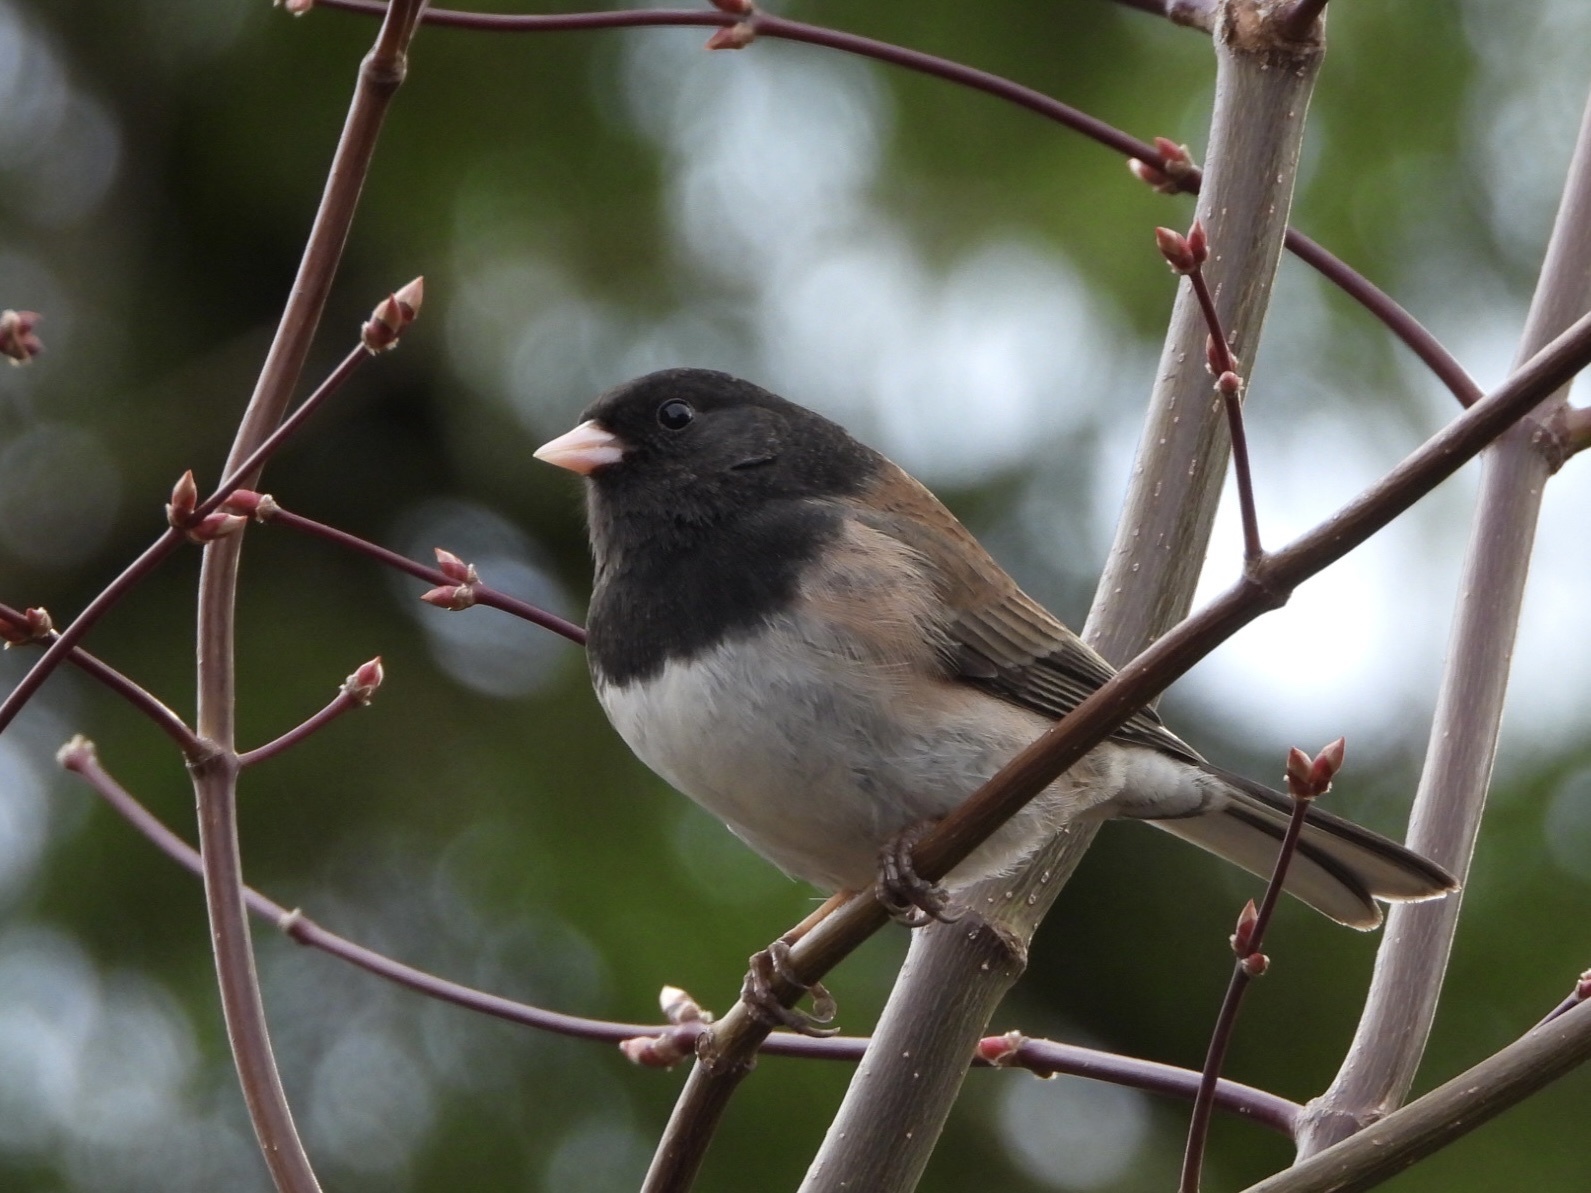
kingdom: Animalia
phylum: Chordata
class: Aves
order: Passeriformes
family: Passerellidae
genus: Junco
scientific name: Junco hyemalis
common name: Dark-eyed junco
